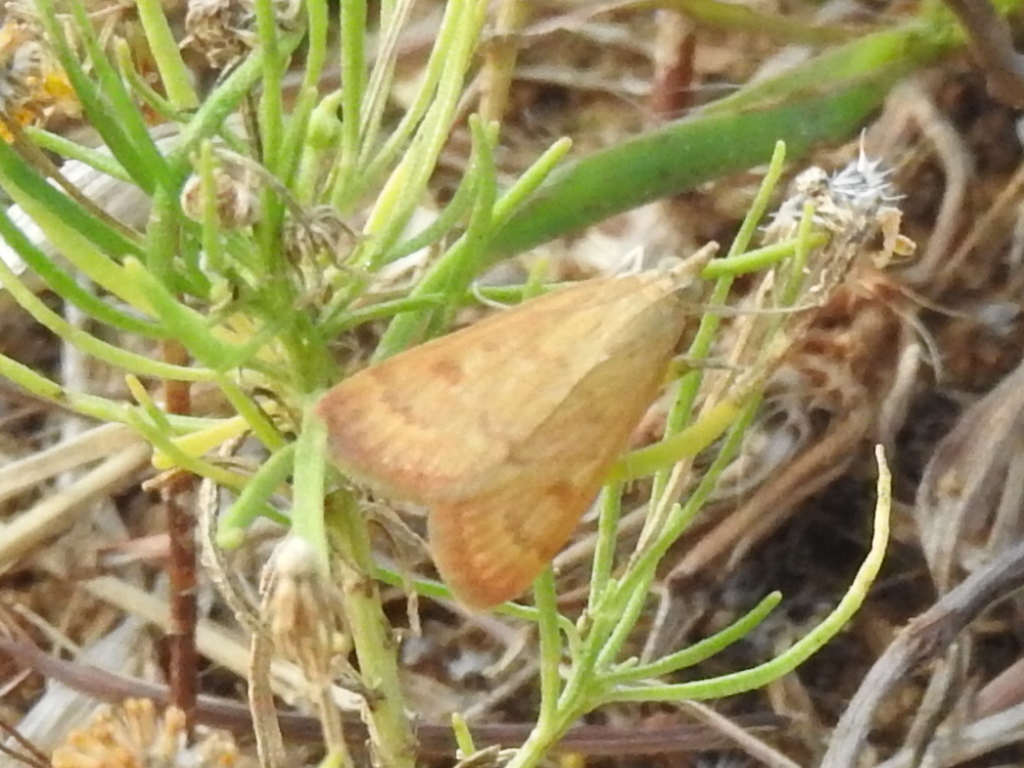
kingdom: Animalia
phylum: Arthropoda
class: Insecta
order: Lepidoptera
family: Crambidae
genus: Achyra
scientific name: Achyra rantalis
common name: Garden webworm
